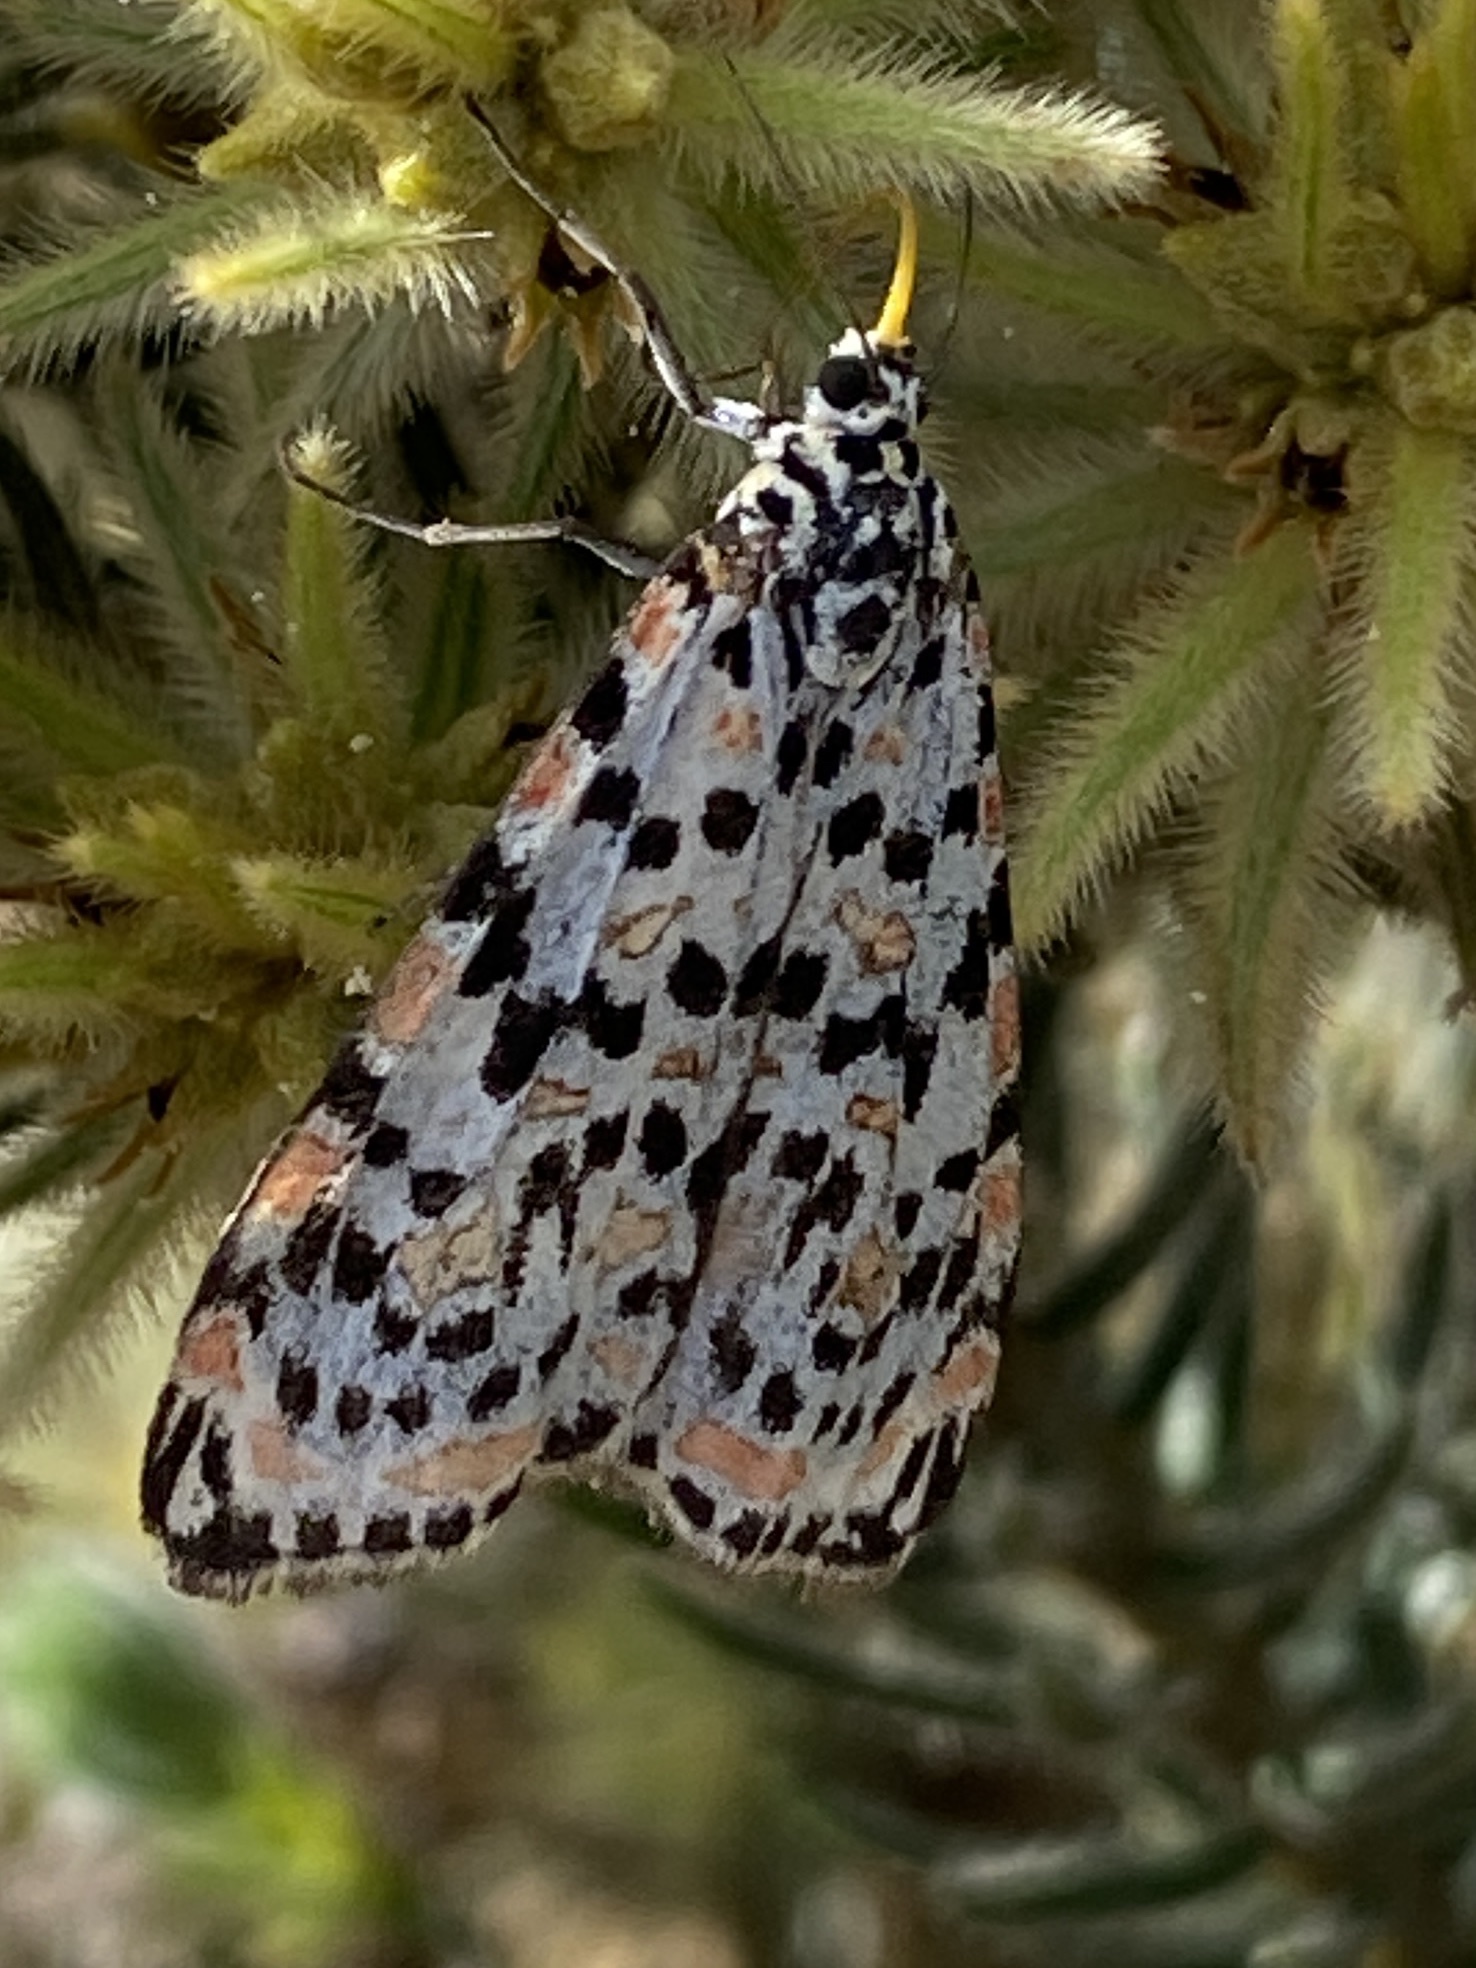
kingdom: Animalia
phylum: Arthropoda
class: Insecta
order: Lepidoptera
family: Erebidae
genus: Utetheisa
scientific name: Utetheisa pulchella
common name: Crimson speckled
